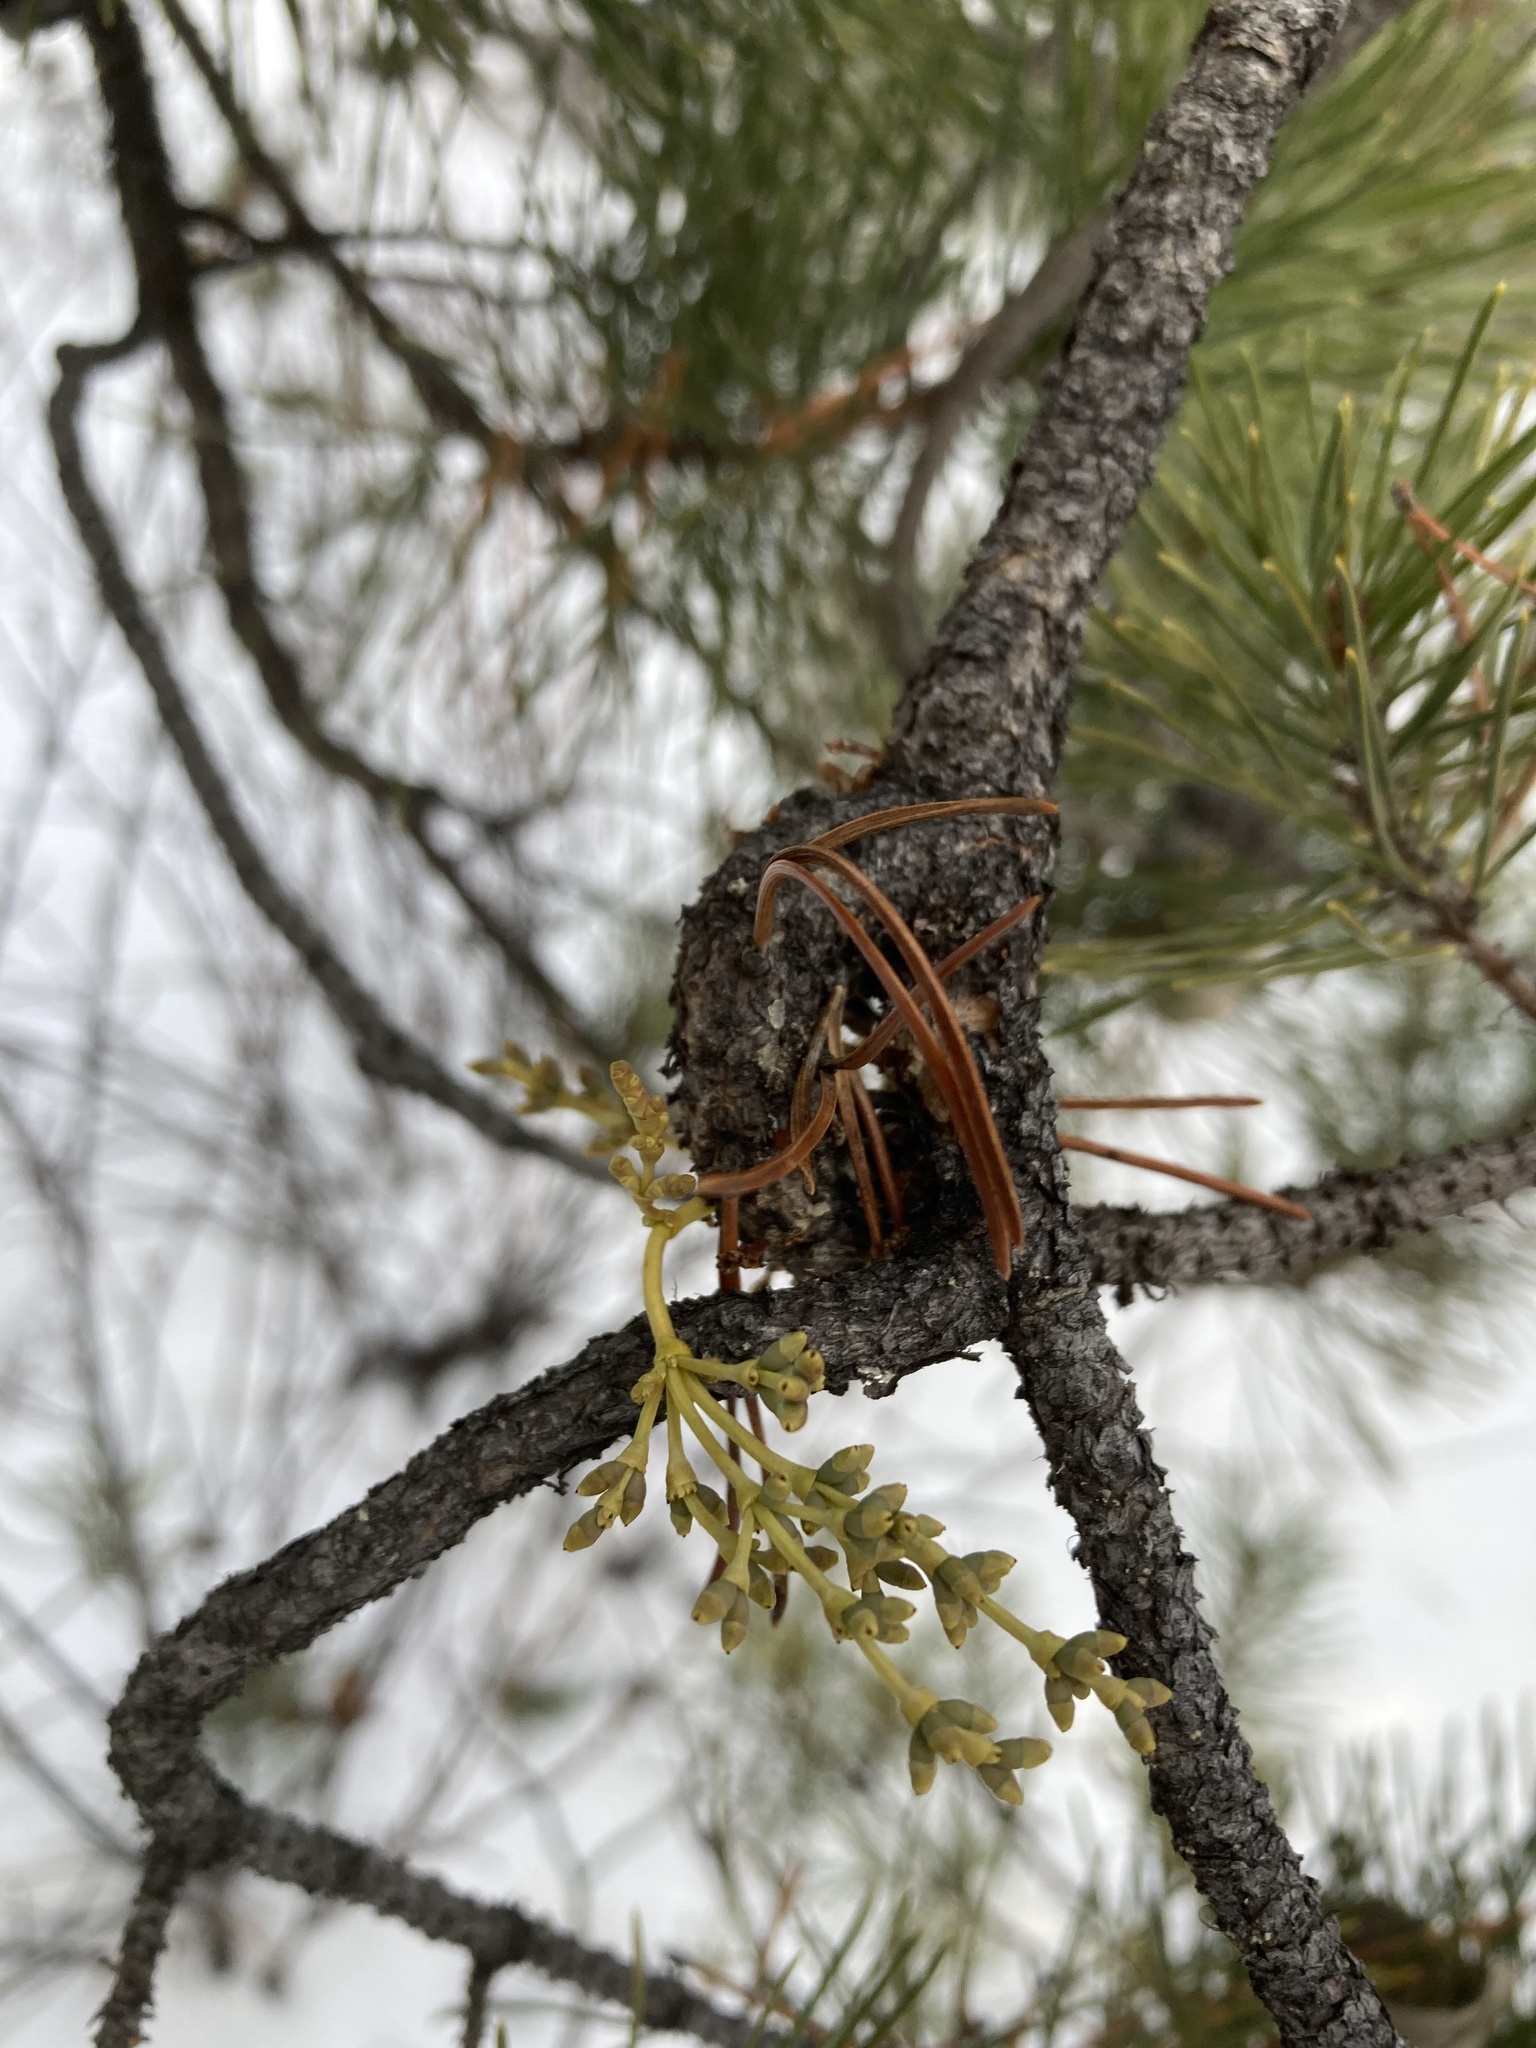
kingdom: Plantae
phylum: Tracheophyta
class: Magnoliopsida
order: Santalales
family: Viscaceae
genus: Arceuthobium
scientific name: Arceuthobium americanum
